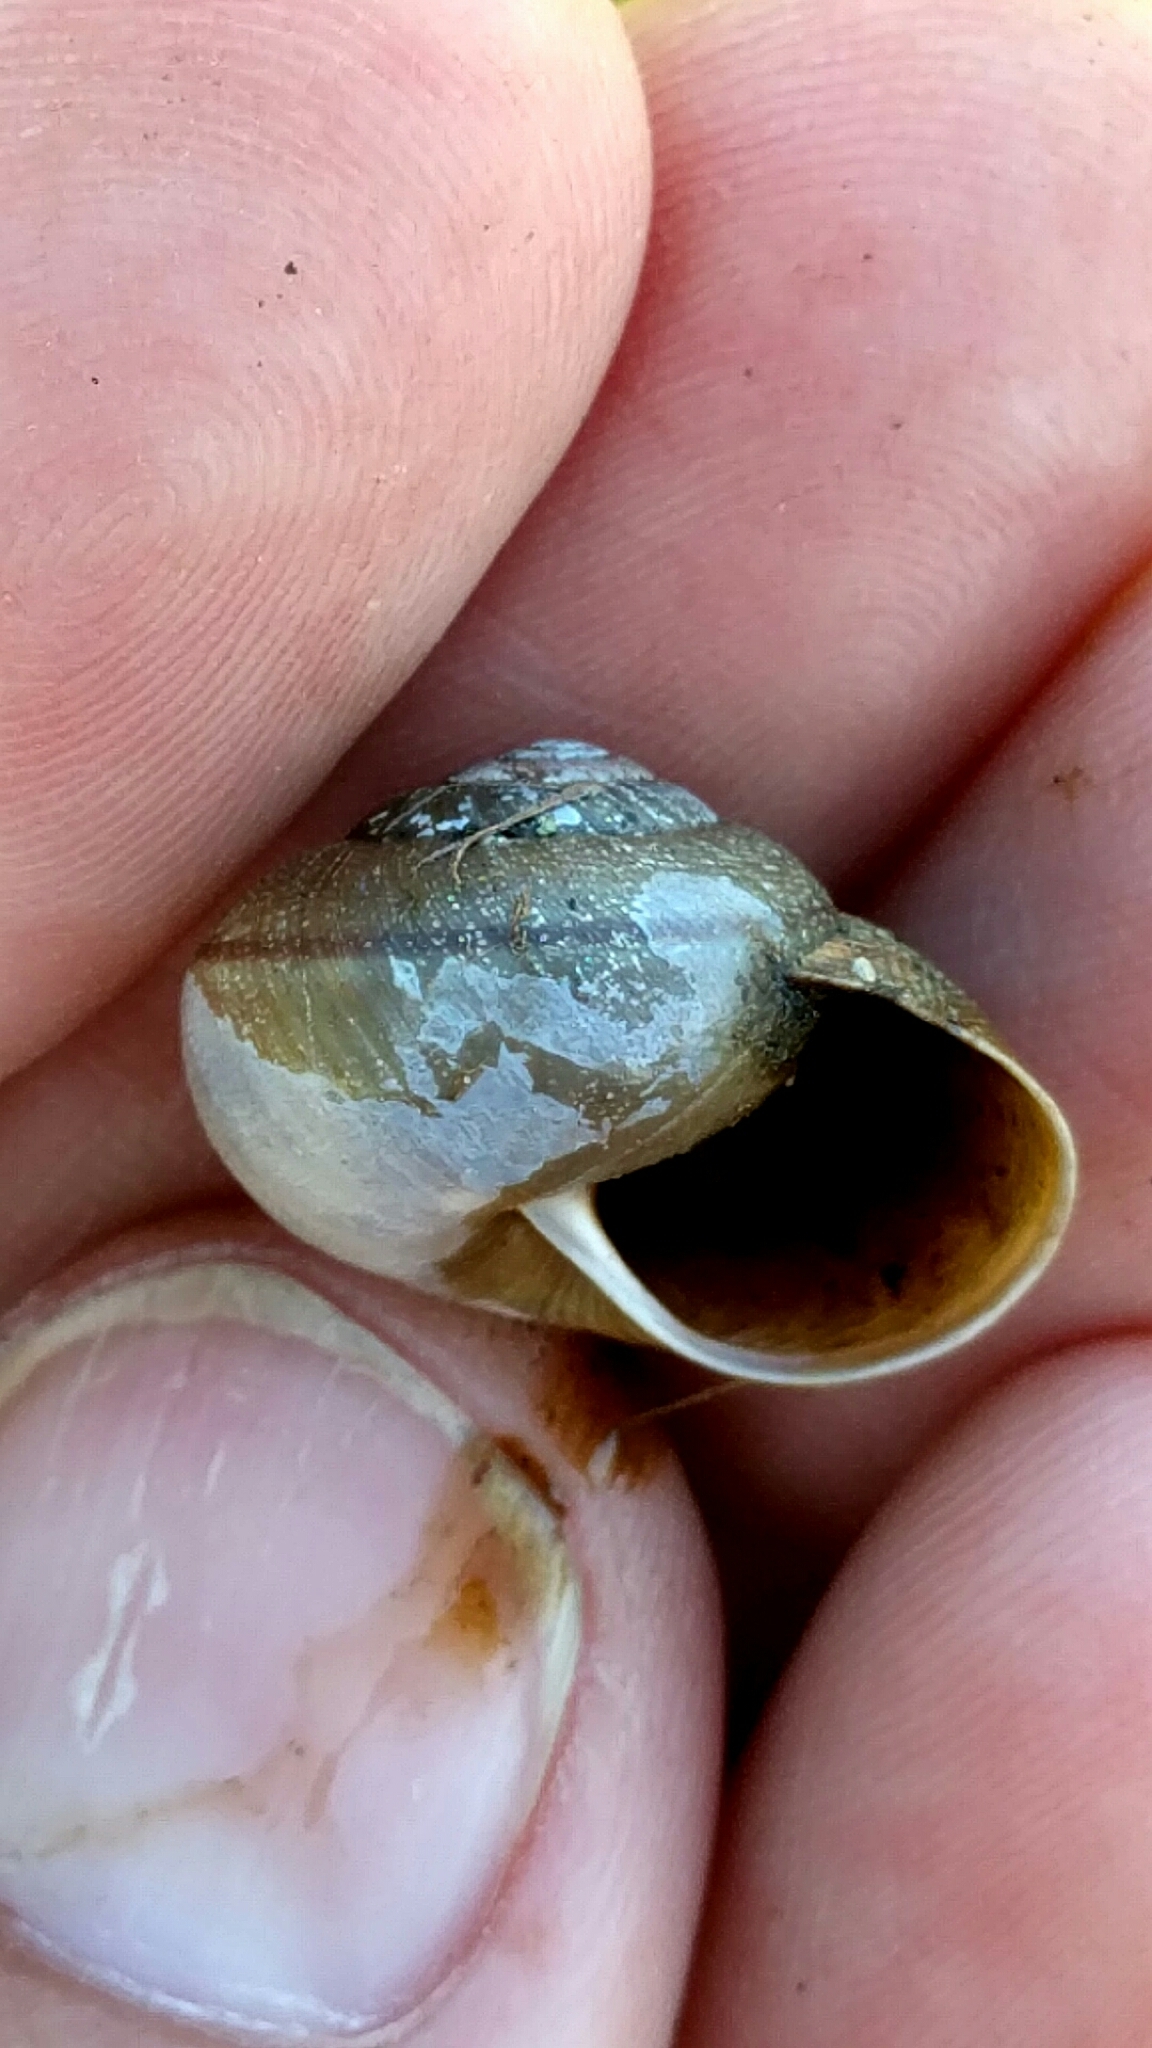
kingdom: Animalia
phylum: Mollusca
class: Gastropoda
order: Stylommatophora
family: Xanthonychidae
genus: Helminthoglypta
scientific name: Helminthoglypta diabloensis
